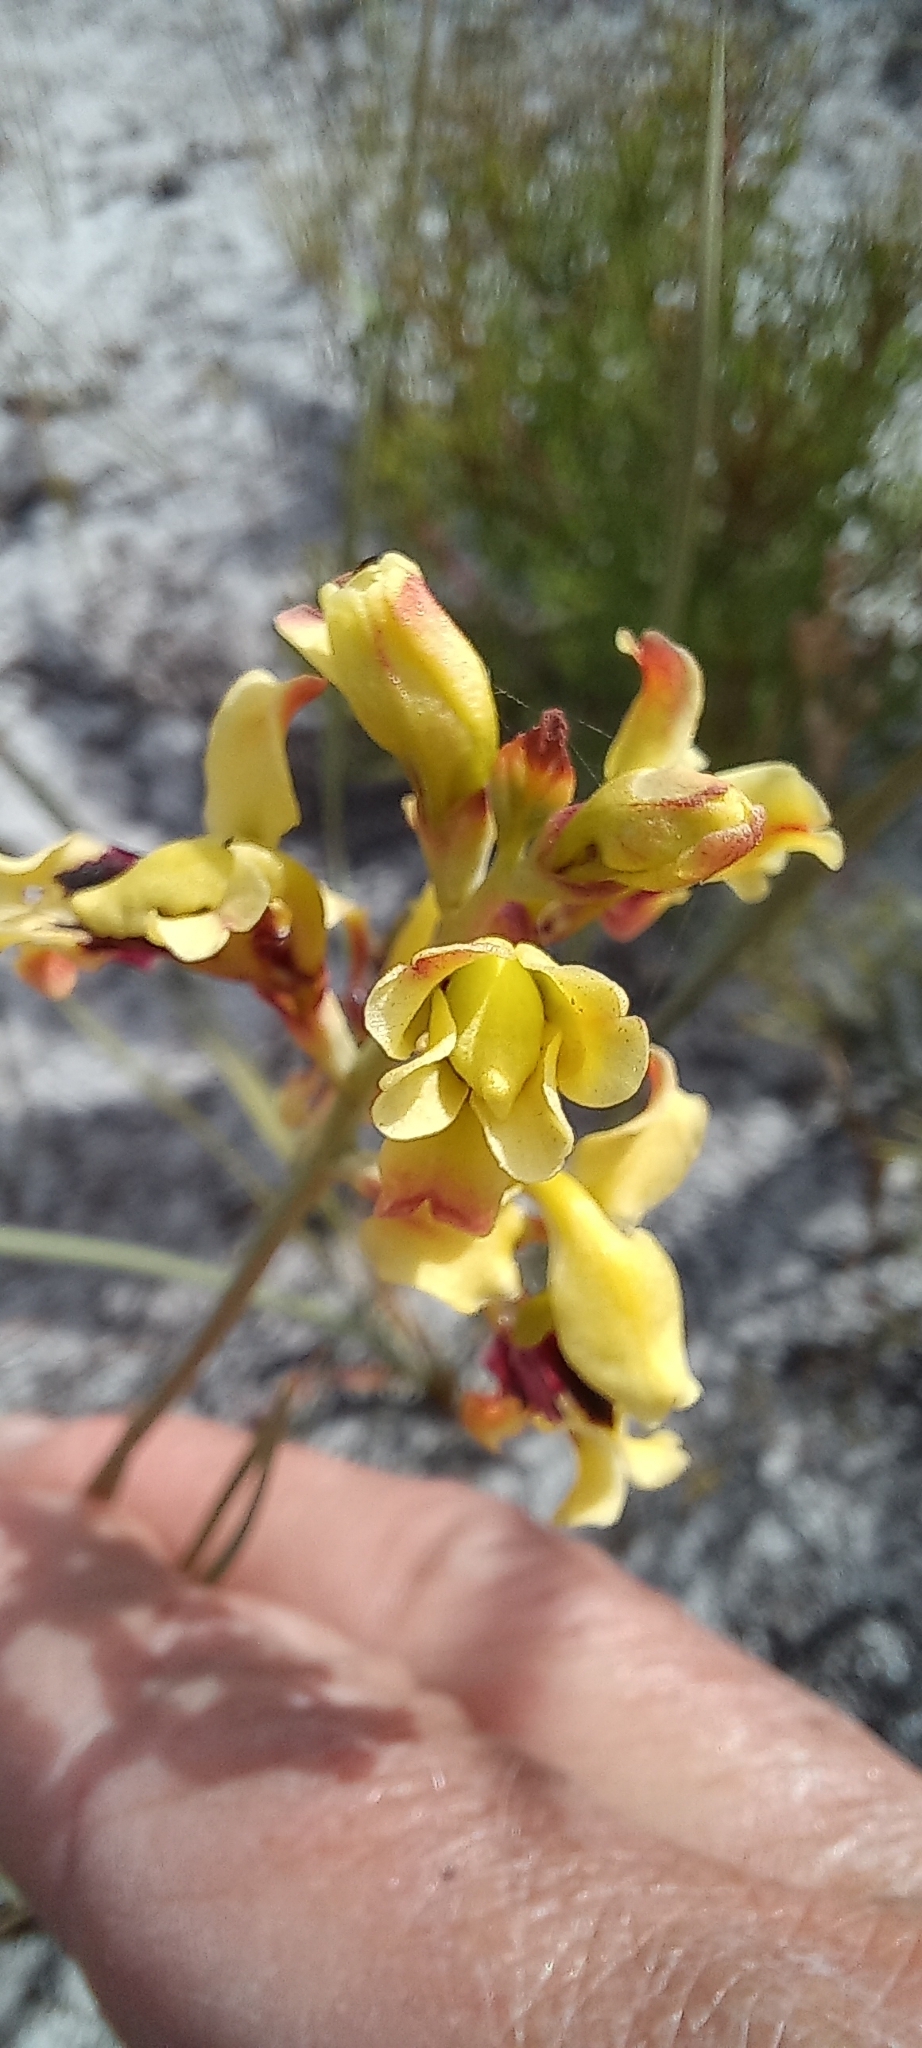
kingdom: Plantae
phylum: Tracheophyta
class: Liliopsida
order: Asparagales
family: Iridaceae
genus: Tritoniopsis
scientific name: Tritoniopsis parviflora
